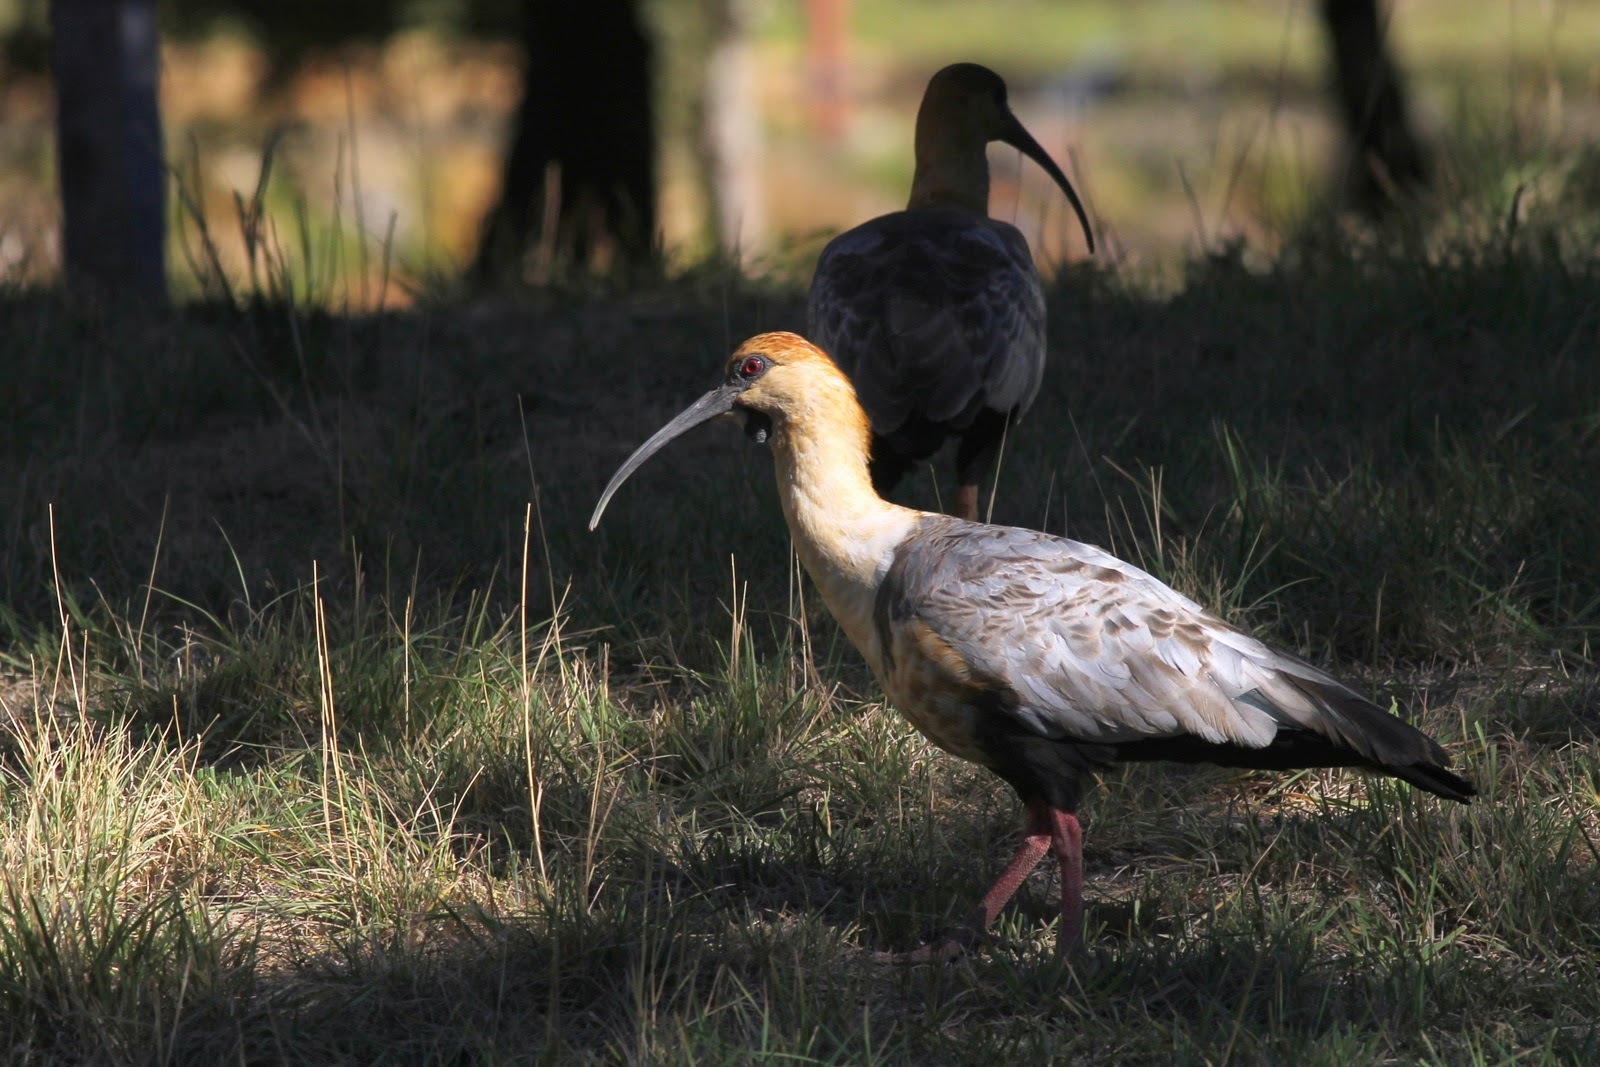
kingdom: Animalia
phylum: Chordata
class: Aves
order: Pelecaniformes
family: Threskiornithidae
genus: Theristicus
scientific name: Theristicus melanopis
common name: Black-faced ibis
